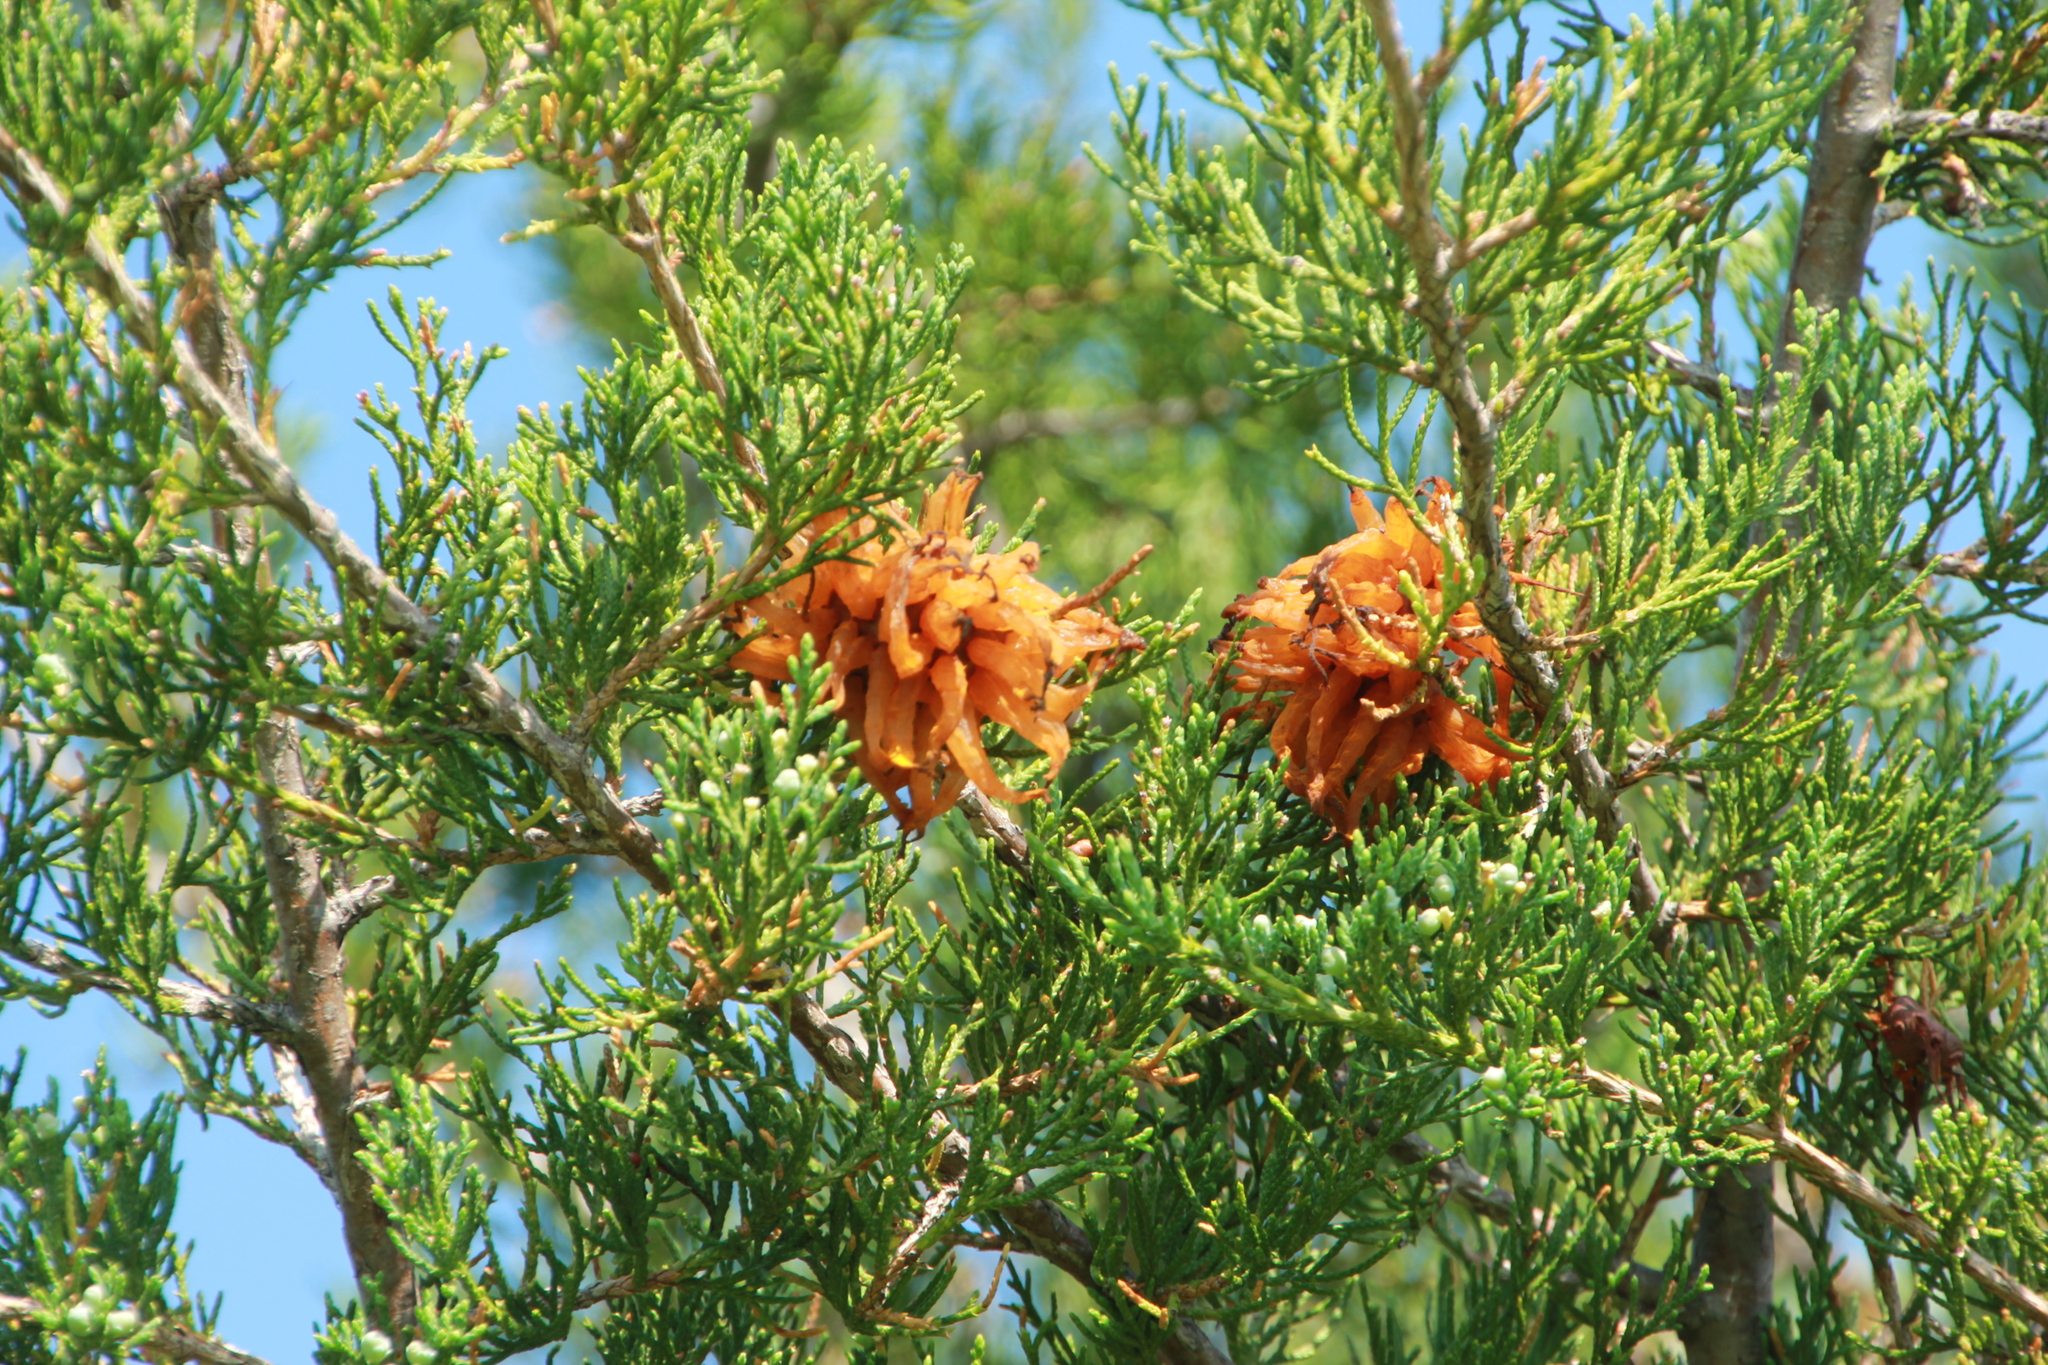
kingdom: Fungi
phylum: Basidiomycota
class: Pucciniomycetes
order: Pucciniales
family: Gymnosporangiaceae
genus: Gymnosporangium
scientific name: Gymnosporangium juniperi-virginianae
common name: Juniper-apple rust
